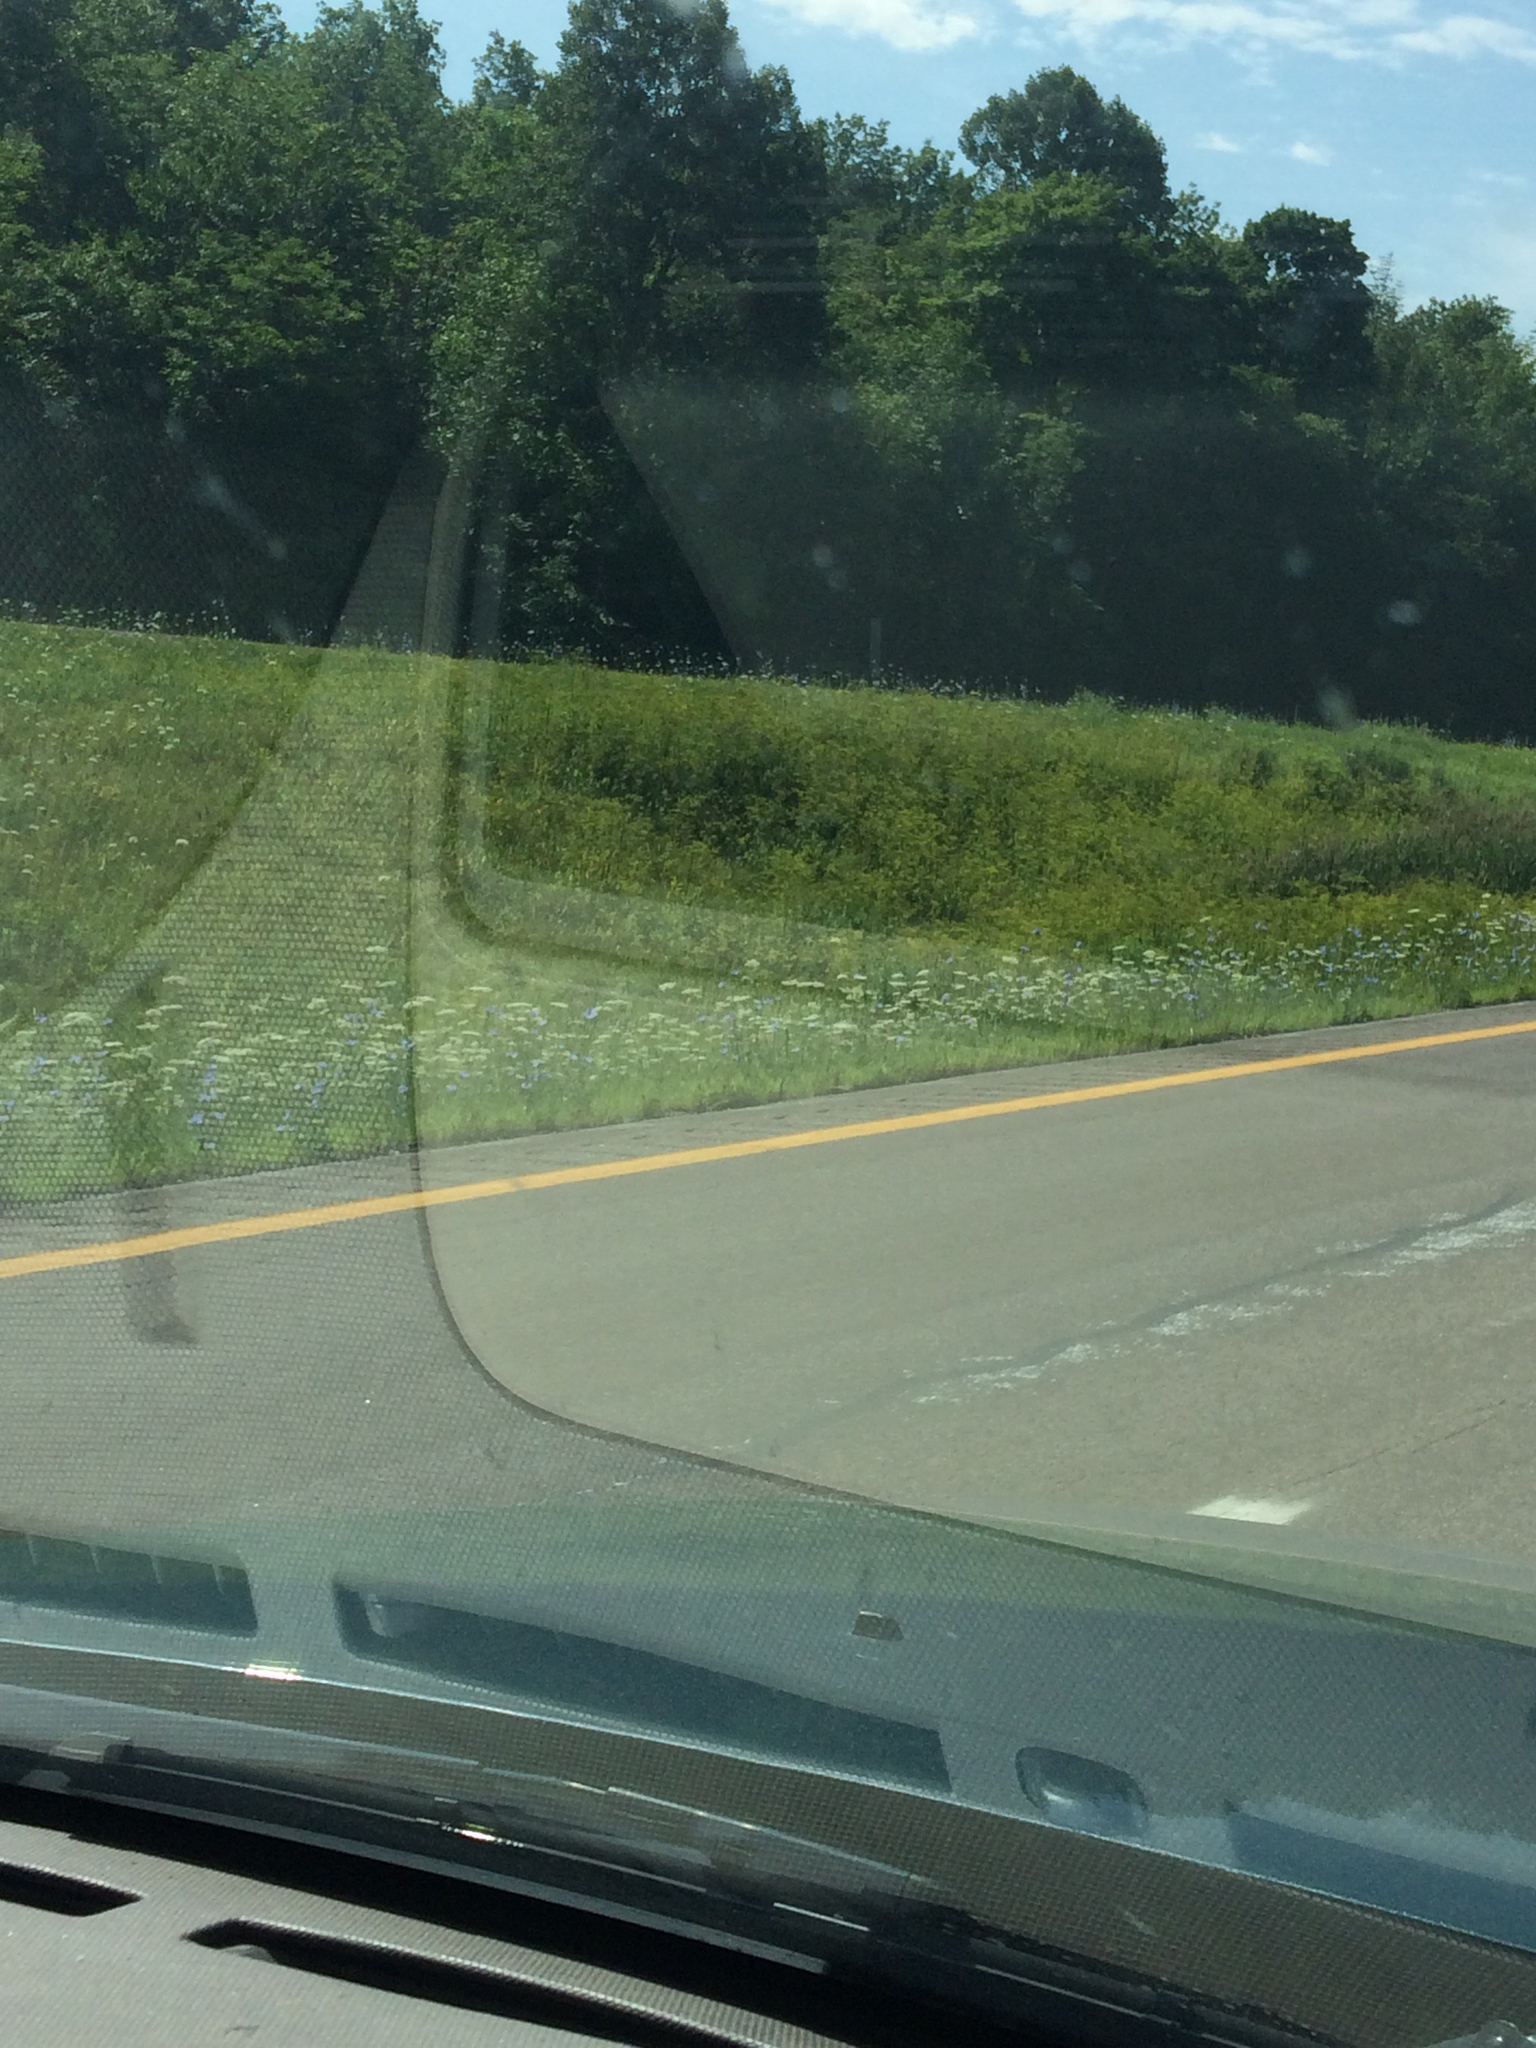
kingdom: Plantae
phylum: Tracheophyta
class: Magnoliopsida
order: Apiales
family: Apiaceae
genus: Pastinaca
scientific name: Pastinaca sativa
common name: Wild parsnip
